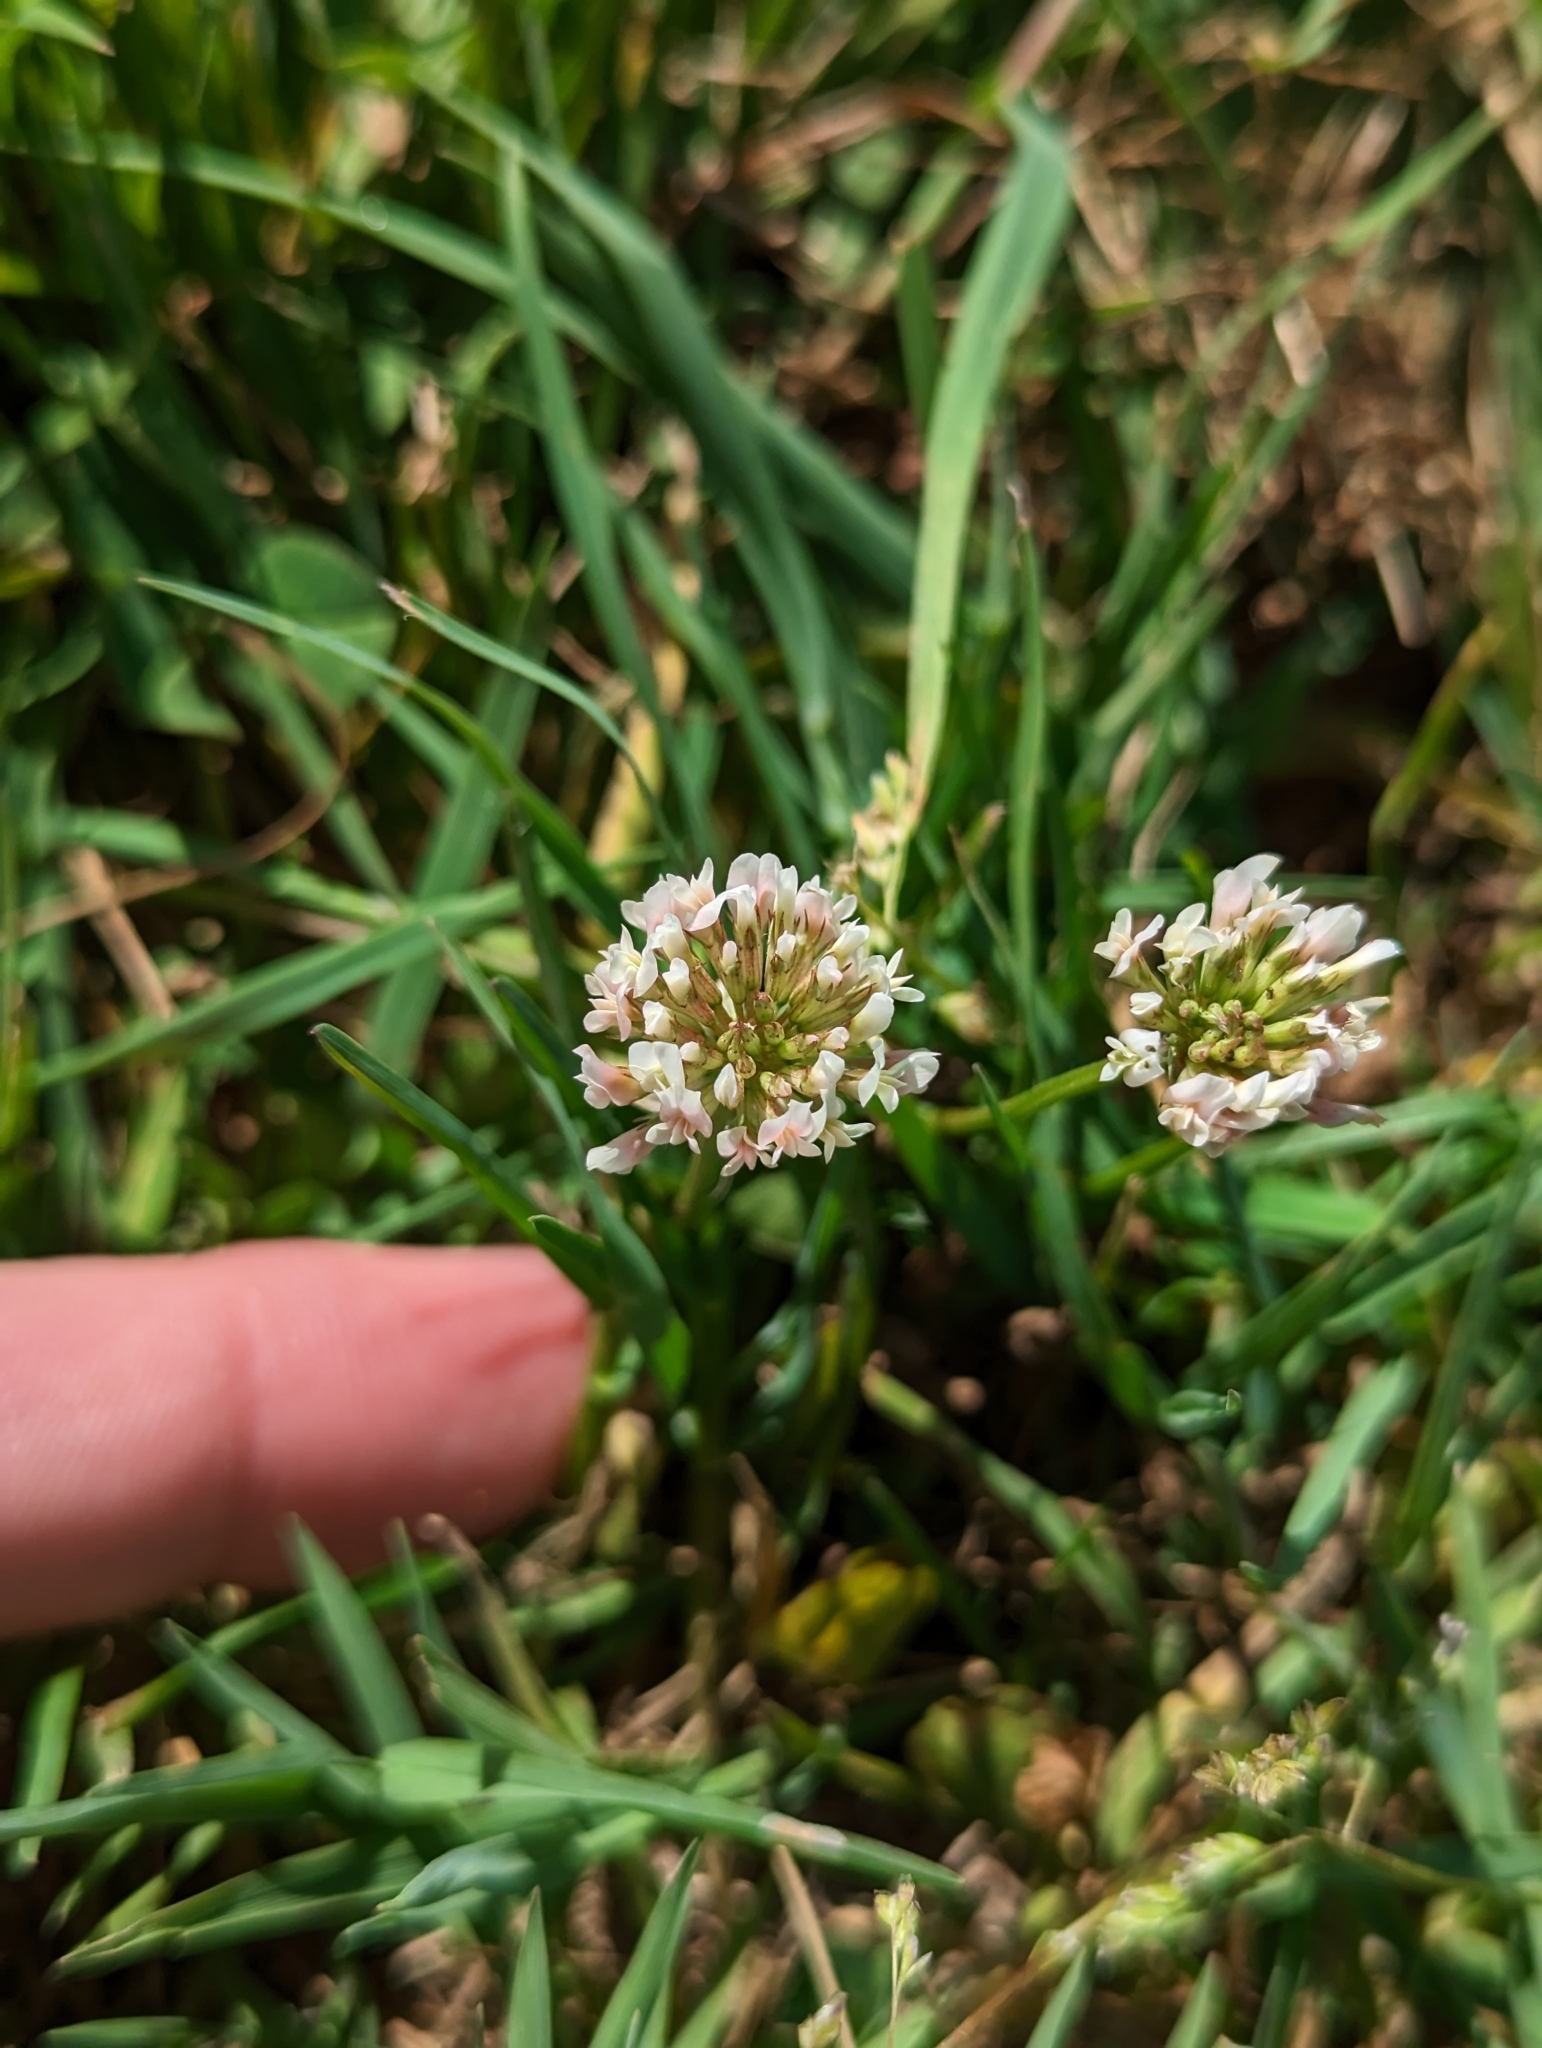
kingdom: Plantae
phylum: Tracheophyta
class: Magnoliopsida
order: Fabales
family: Fabaceae
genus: Trifolium
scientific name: Trifolium repens
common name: White clover
